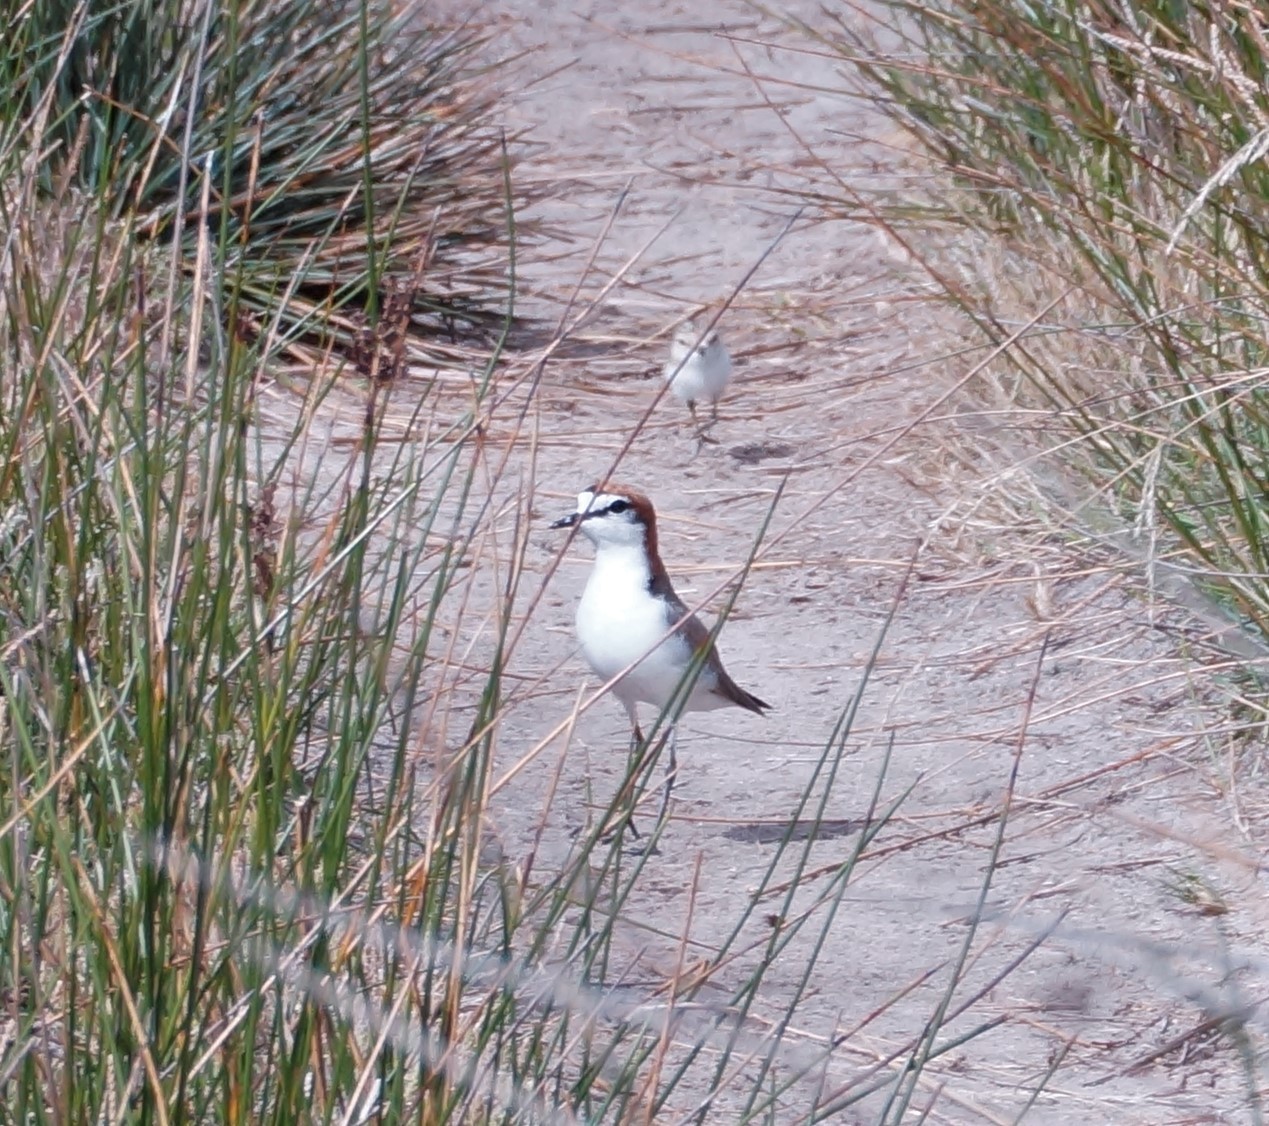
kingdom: Animalia
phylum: Chordata
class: Aves
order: Charadriiformes
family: Charadriidae
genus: Anarhynchus
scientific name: Anarhynchus
